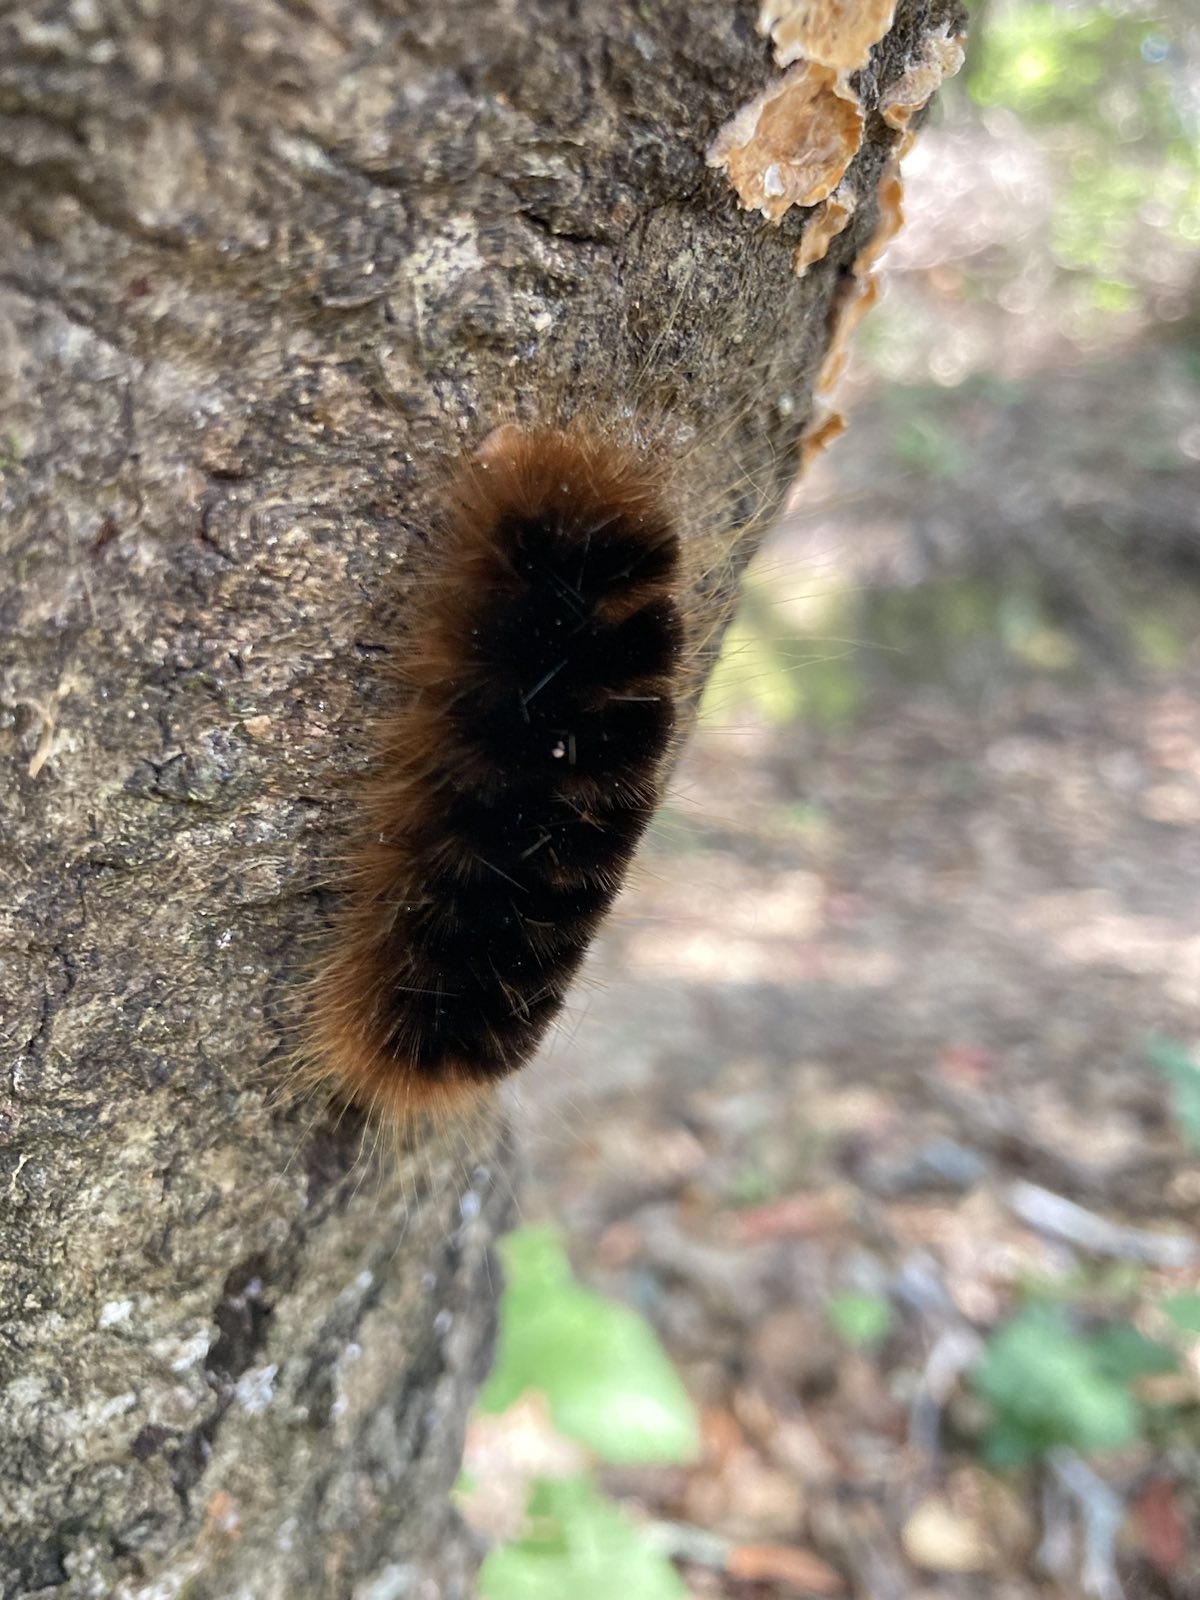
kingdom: Animalia
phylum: Arthropoda
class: Insecta
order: Lepidoptera
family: Erebidae
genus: Hemihyalea
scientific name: Hemihyalea edwardsii
